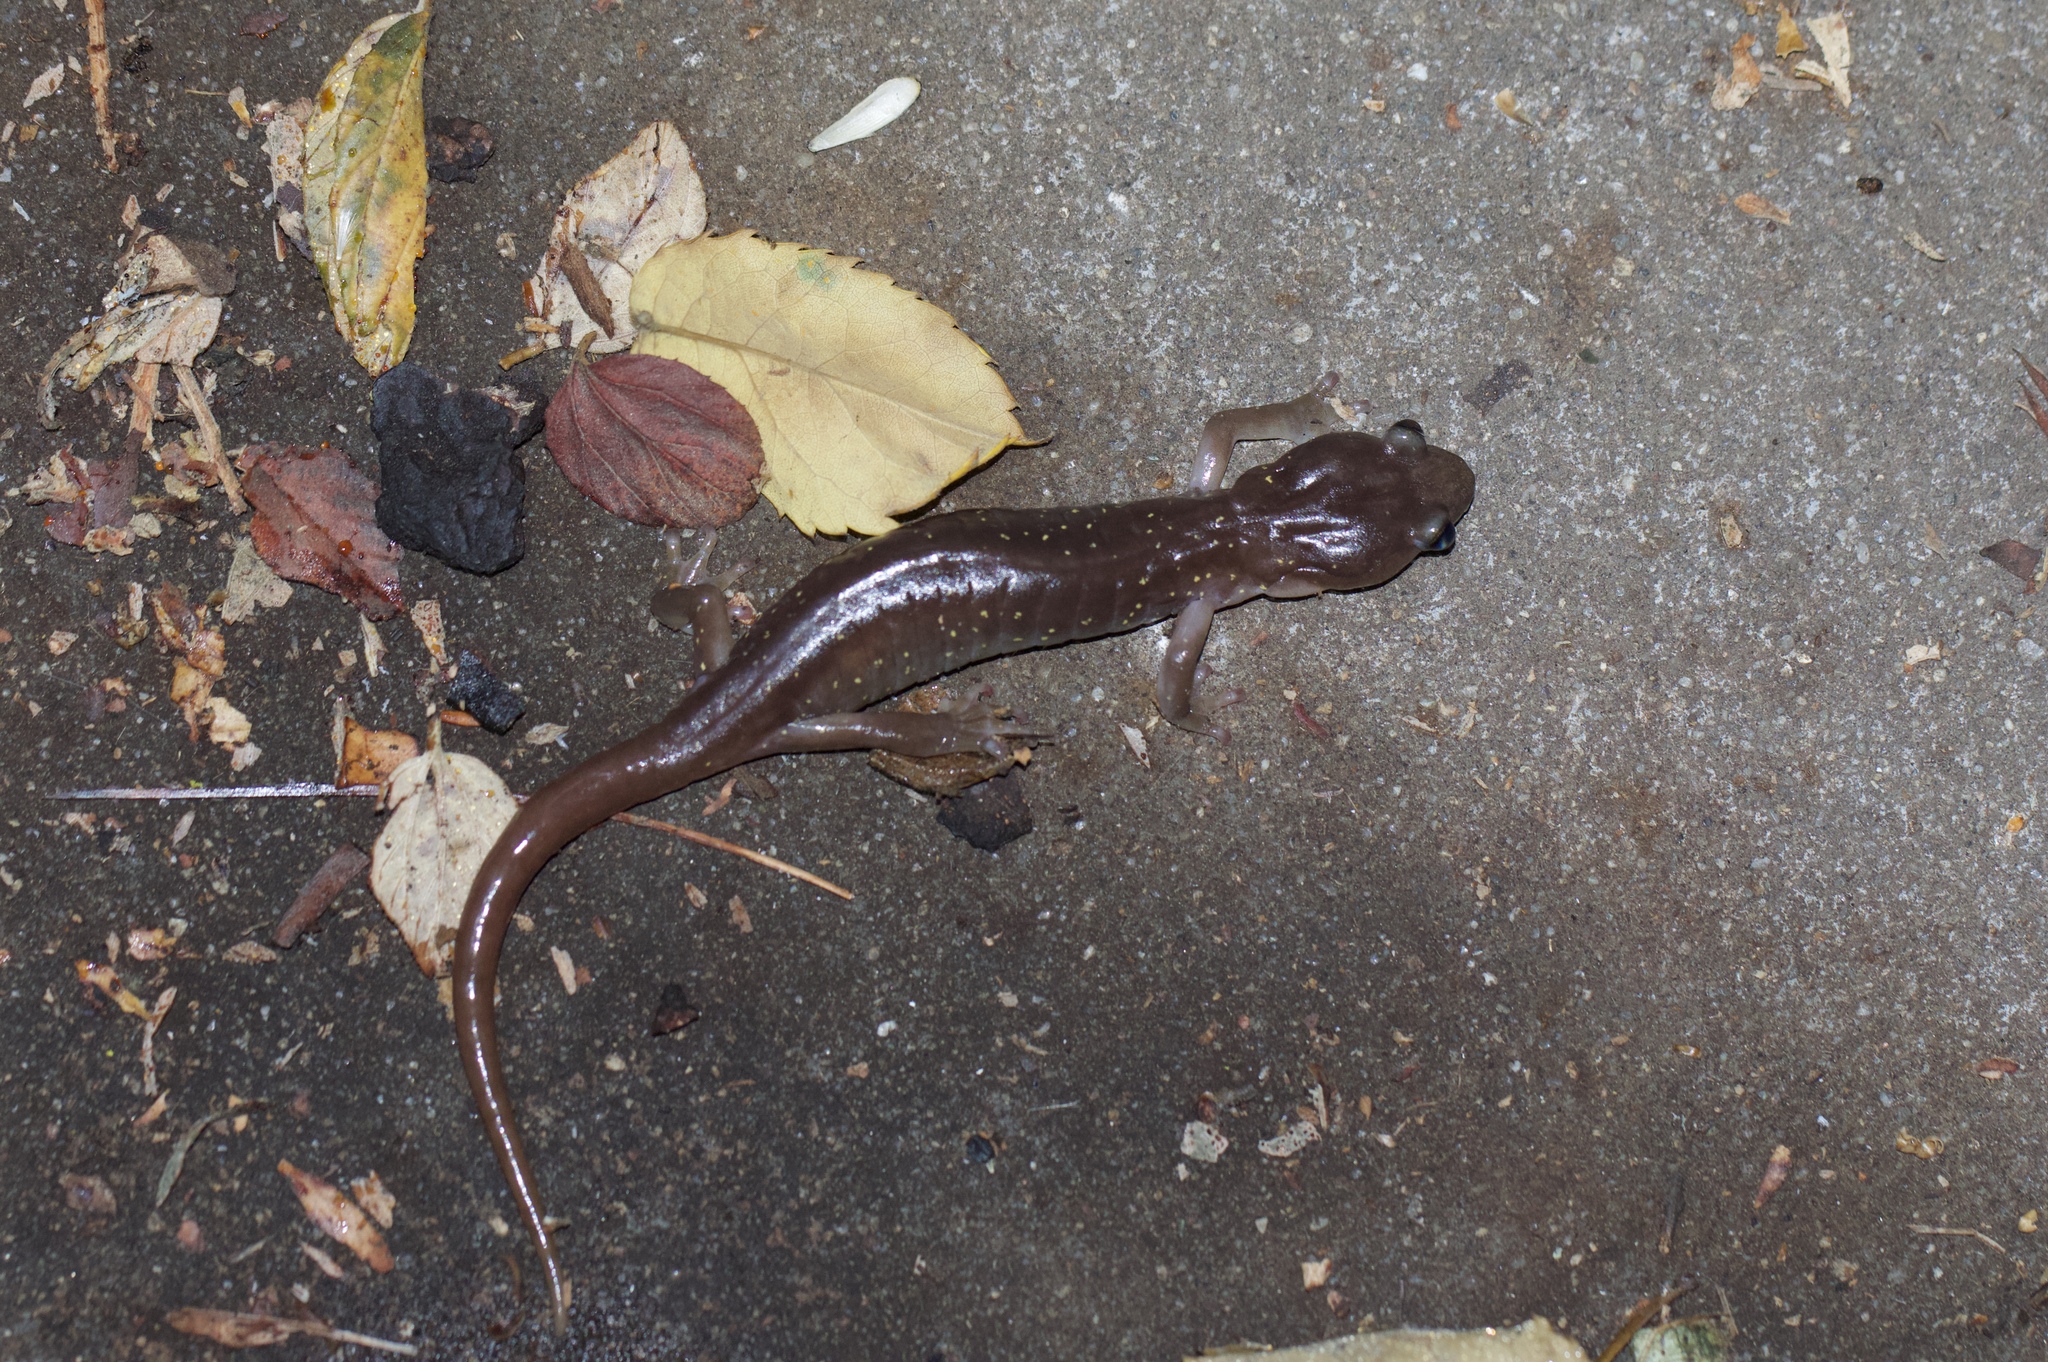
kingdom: Animalia
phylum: Chordata
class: Amphibia
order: Caudata
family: Plethodontidae
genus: Aneides
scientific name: Aneides lugubris
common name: Arboreal salamander
